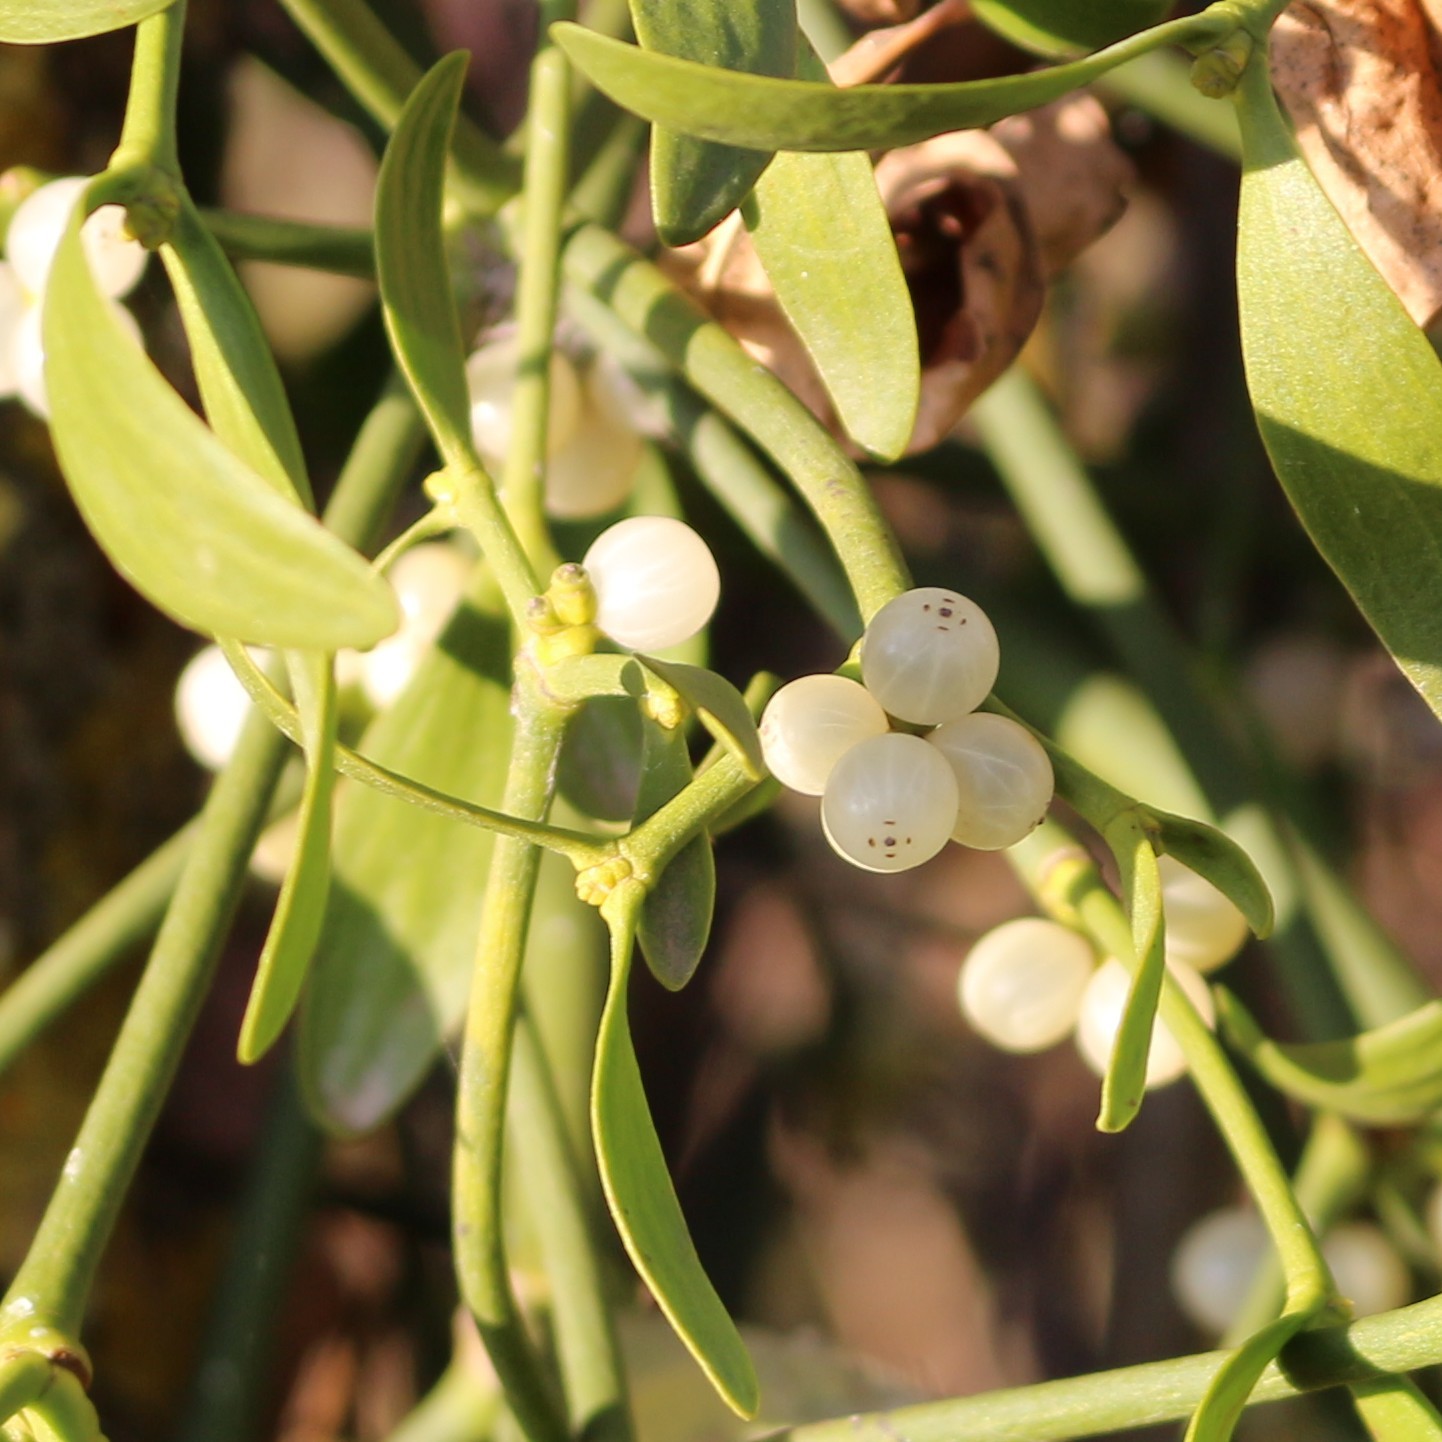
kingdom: Plantae
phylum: Tracheophyta
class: Magnoliopsida
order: Santalales
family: Viscaceae
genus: Viscum
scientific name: Viscum album
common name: Mistletoe
